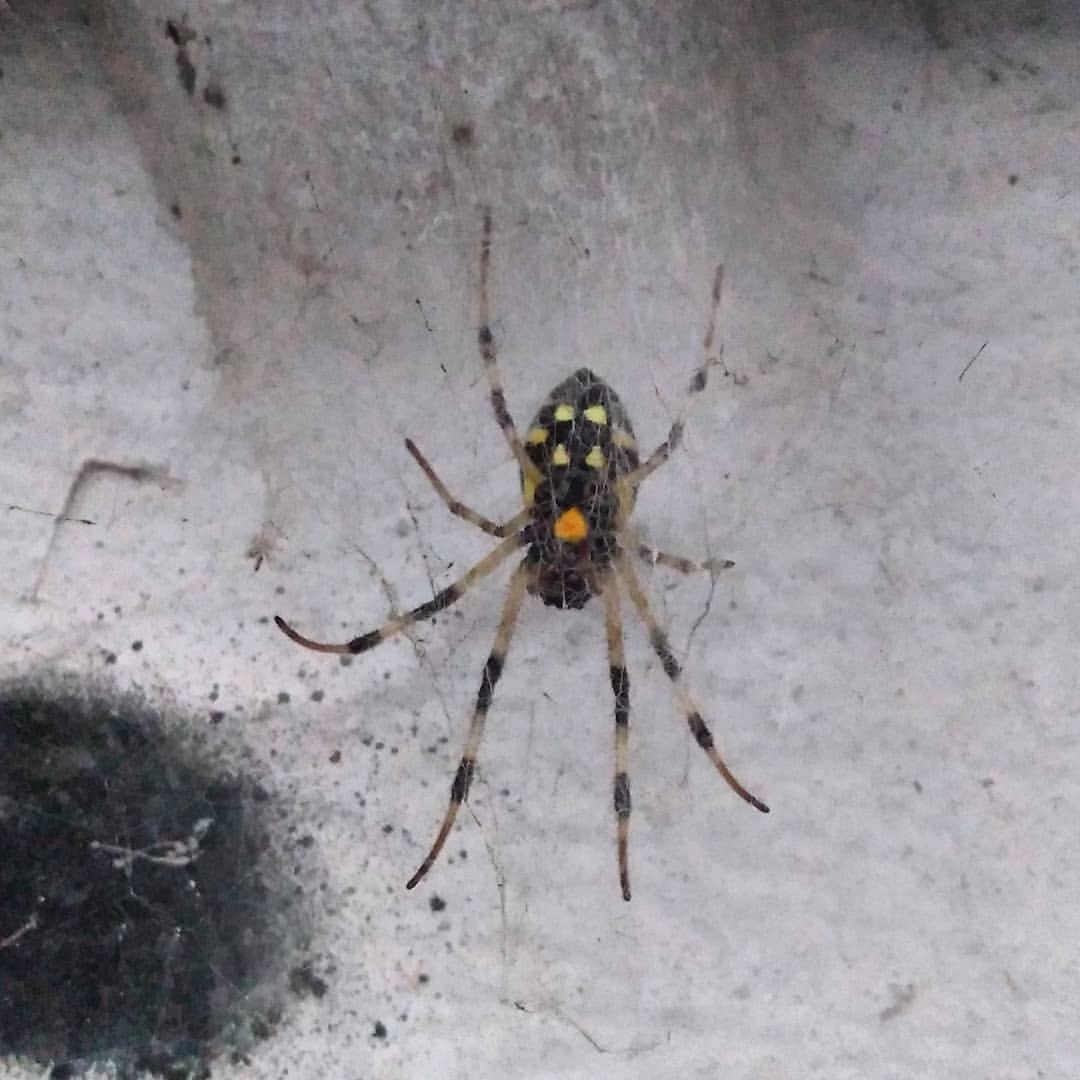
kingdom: Animalia
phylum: Arthropoda
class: Arachnida
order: Araneae
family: Araneidae
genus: Nephilingis
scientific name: Nephilingis cruentata
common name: African hermit spider
